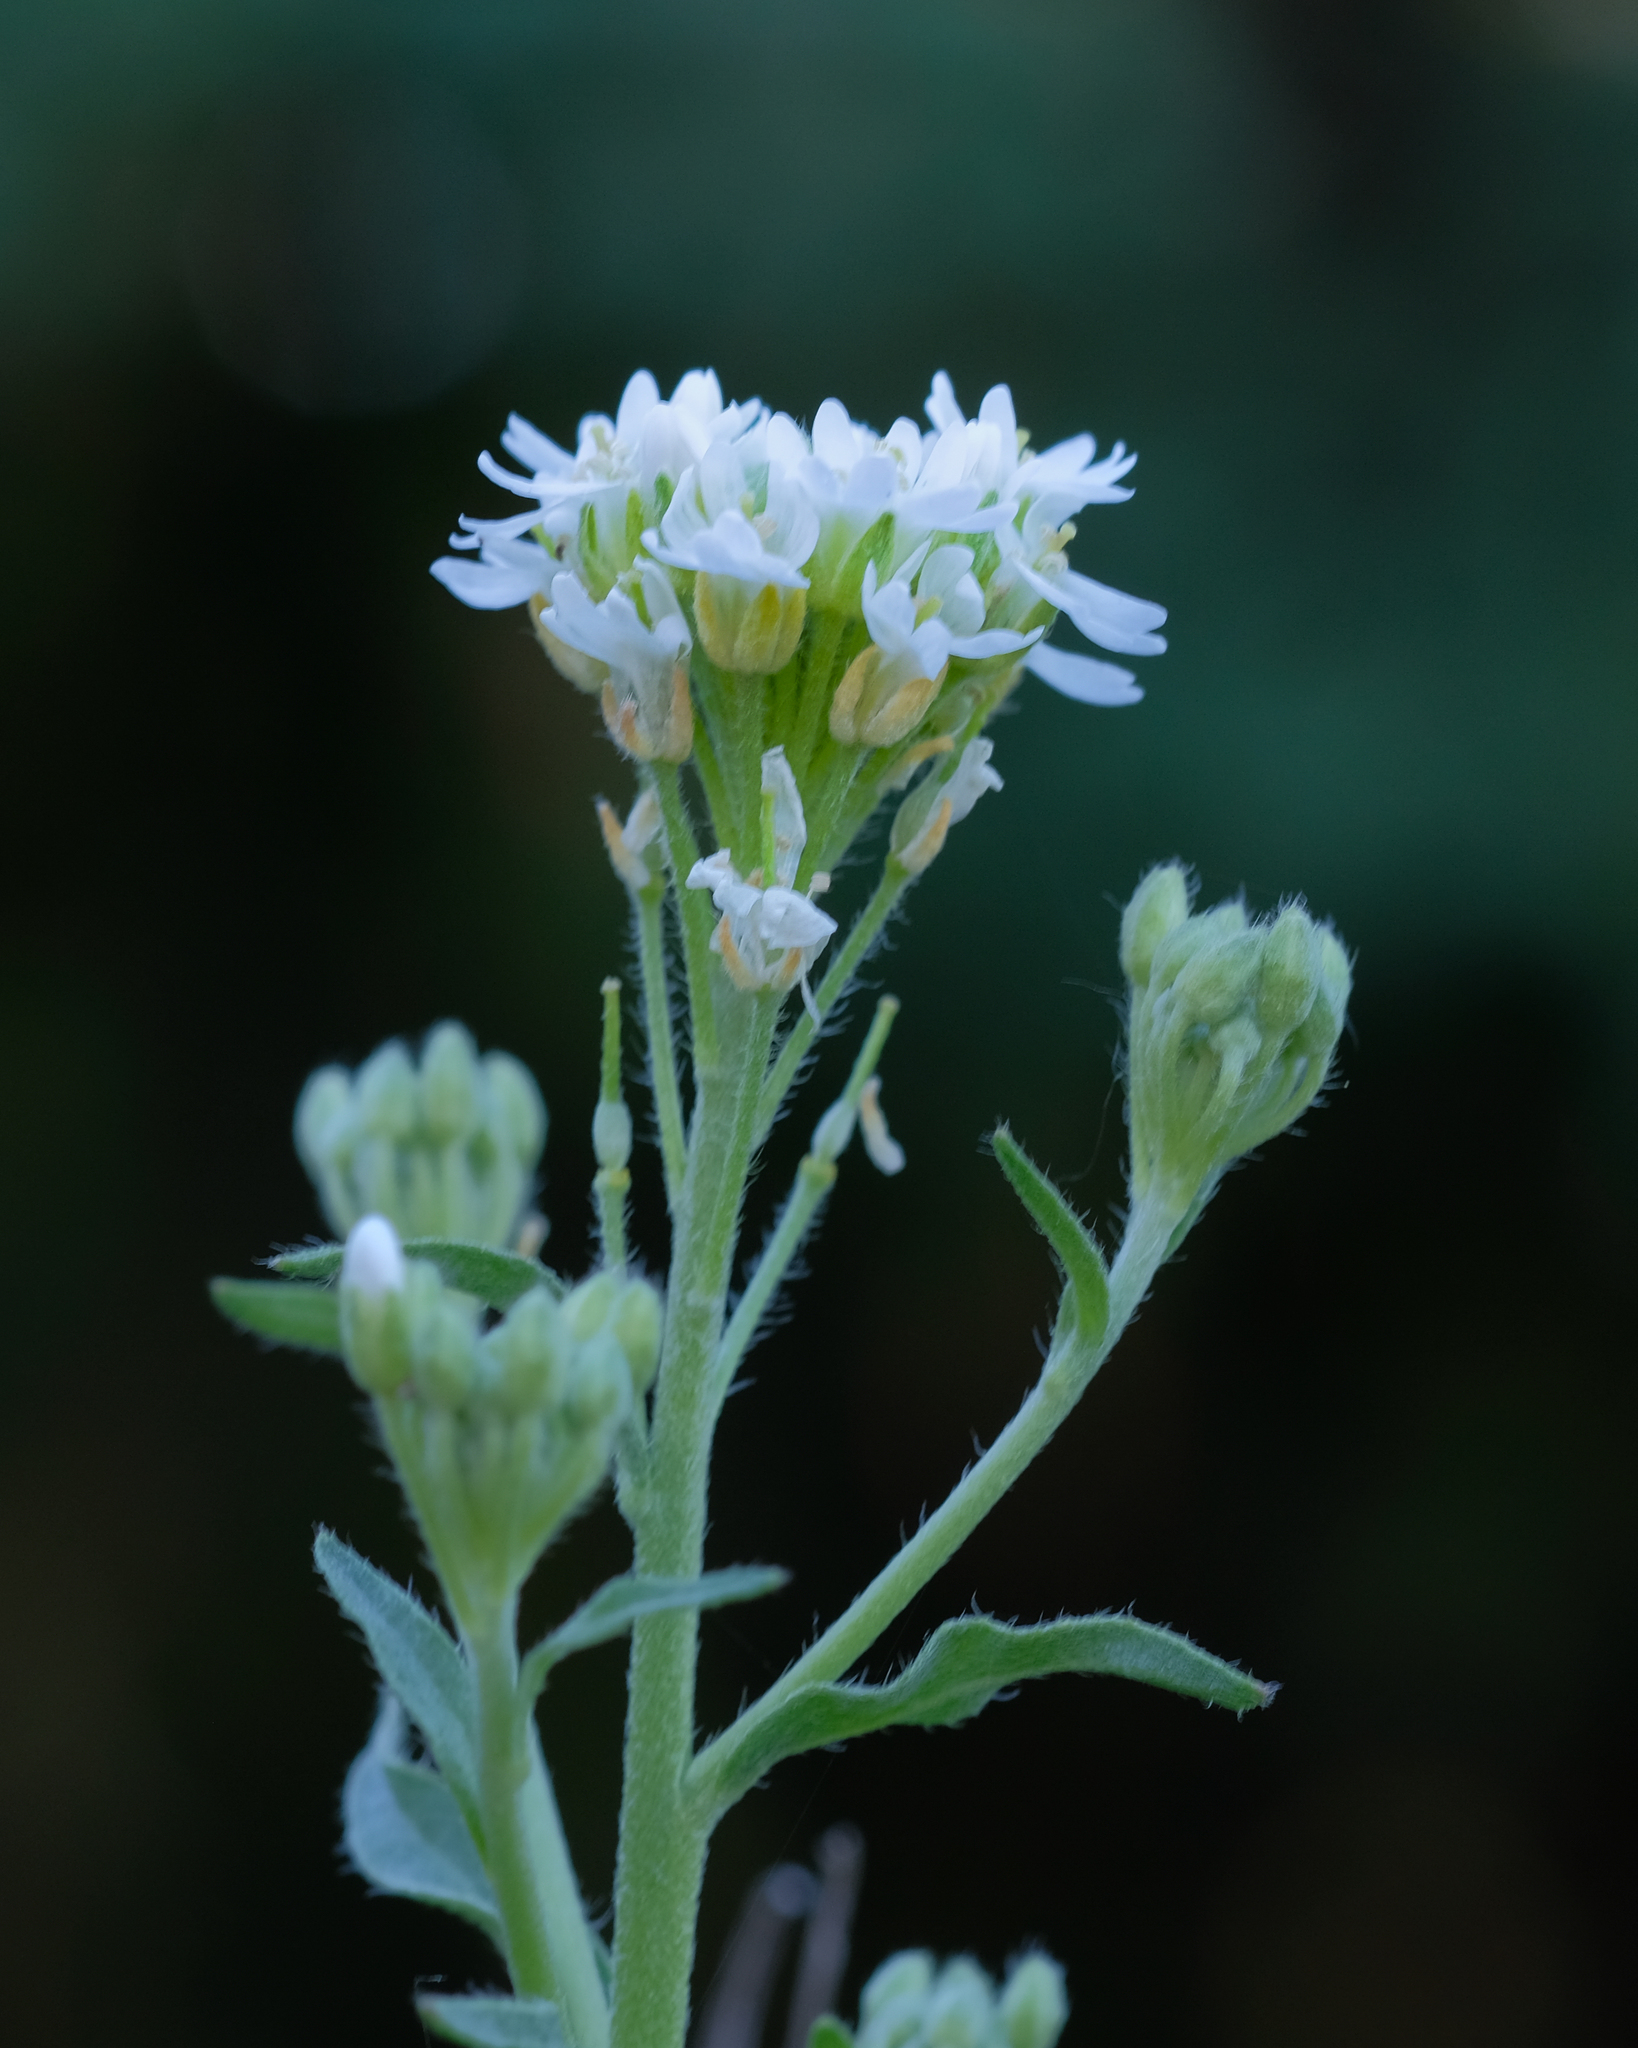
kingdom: Plantae
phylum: Tracheophyta
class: Magnoliopsida
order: Brassicales
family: Brassicaceae
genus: Berteroa
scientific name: Berteroa incana
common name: Hoary alison
